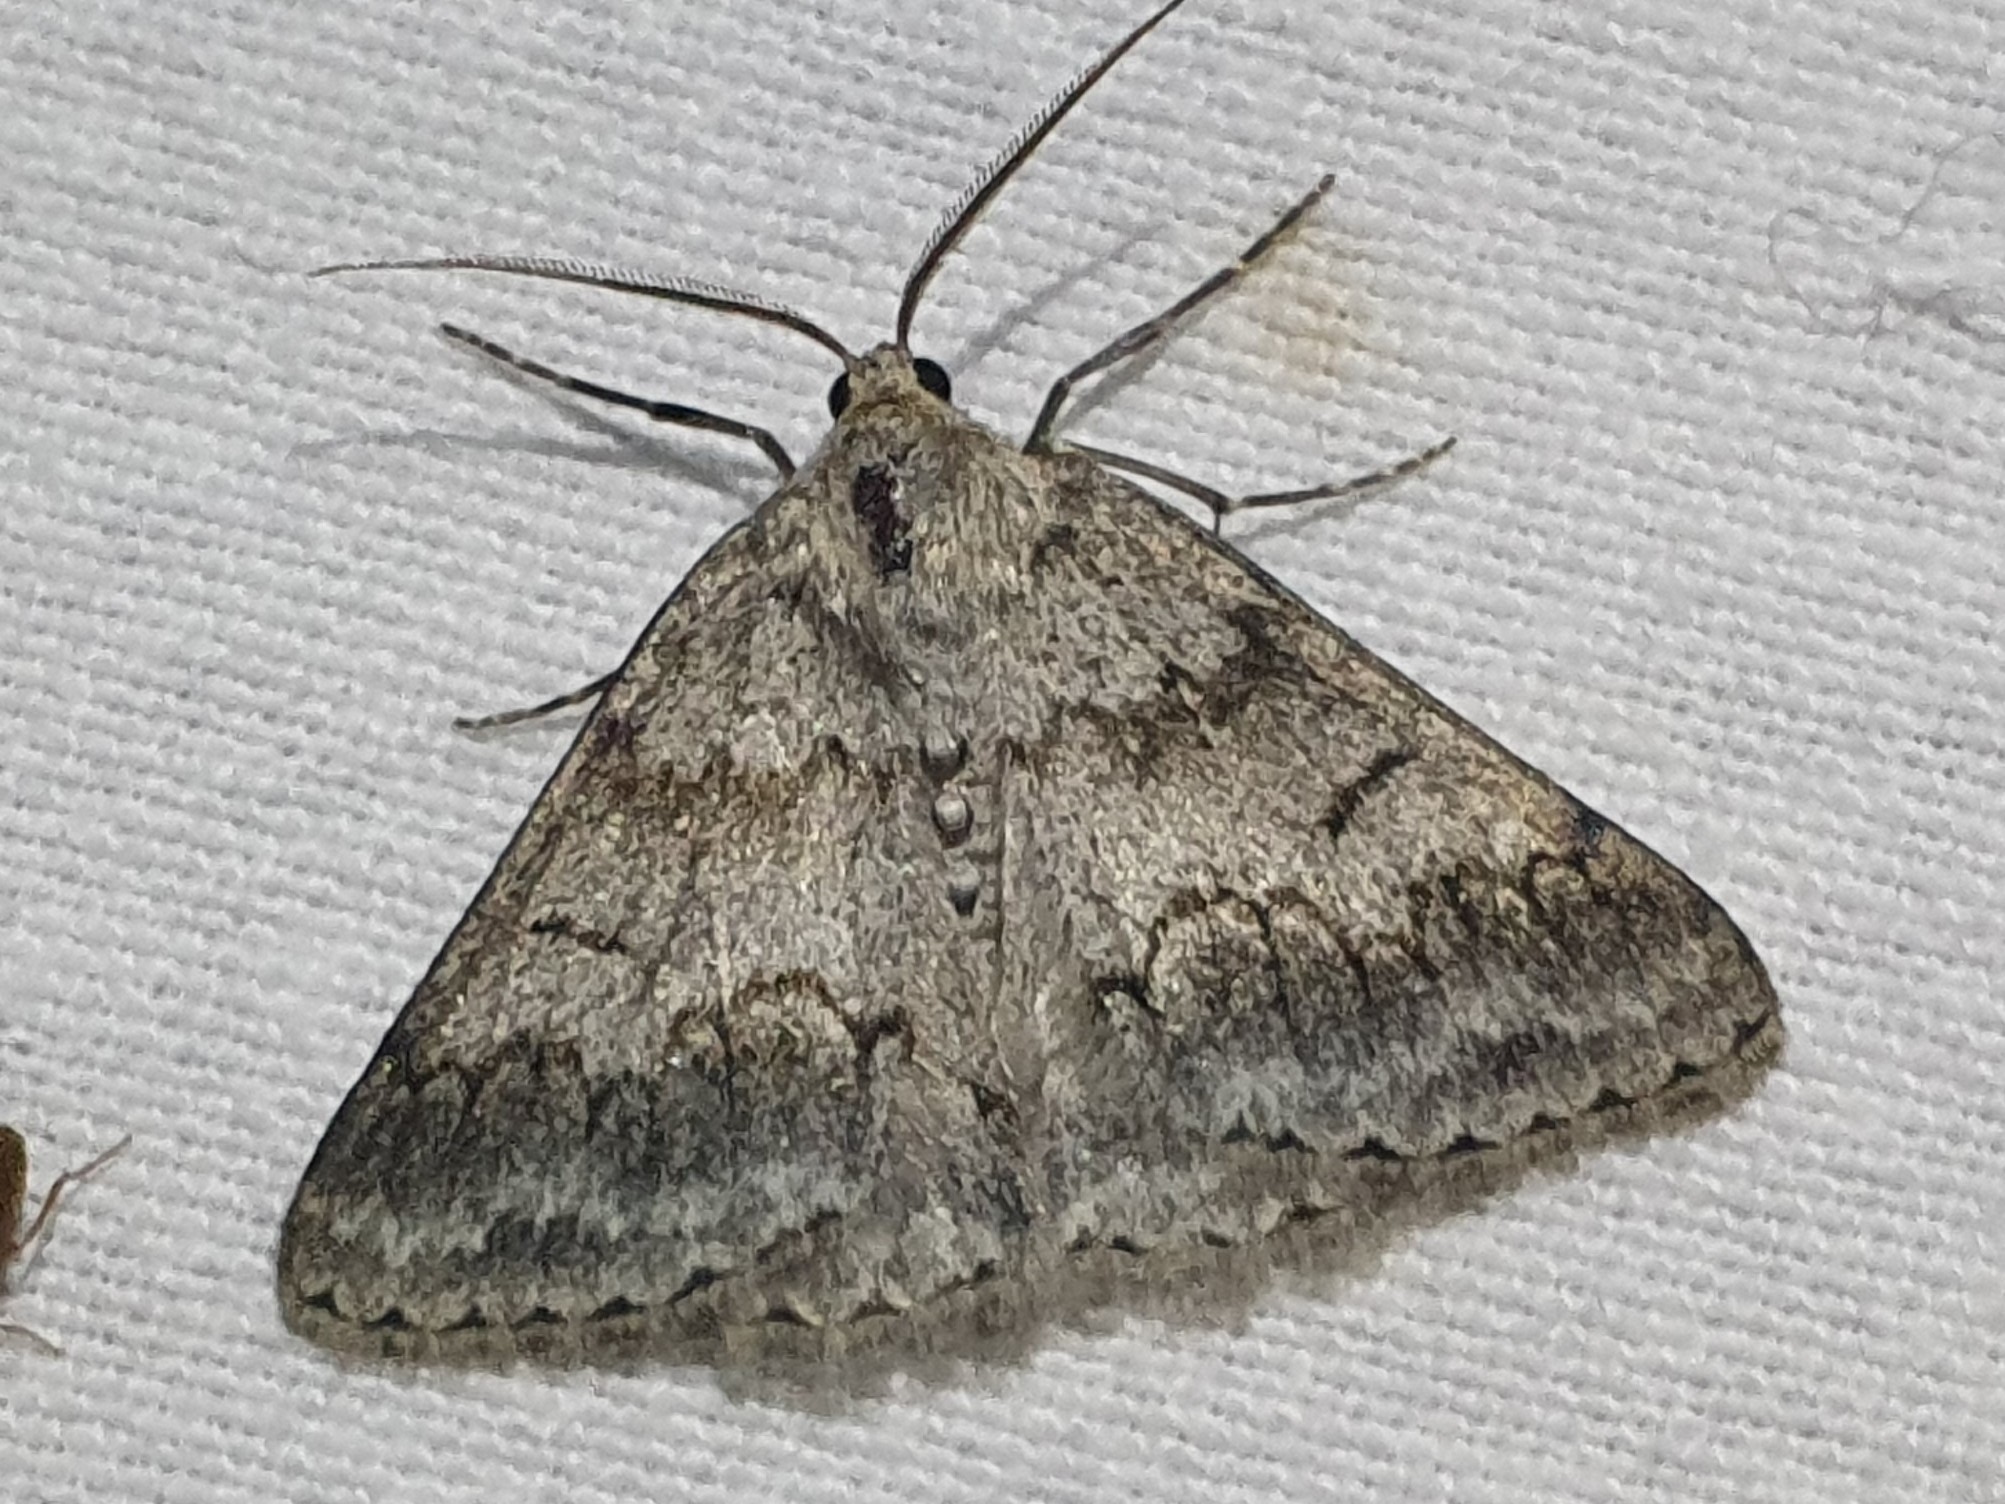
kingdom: Animalia
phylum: Arthropoda
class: Insecta
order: Lepidoptera
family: Geometridae
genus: Pseudoterpna
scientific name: Pseudoterpna coronillaria
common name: Jersey emerald
